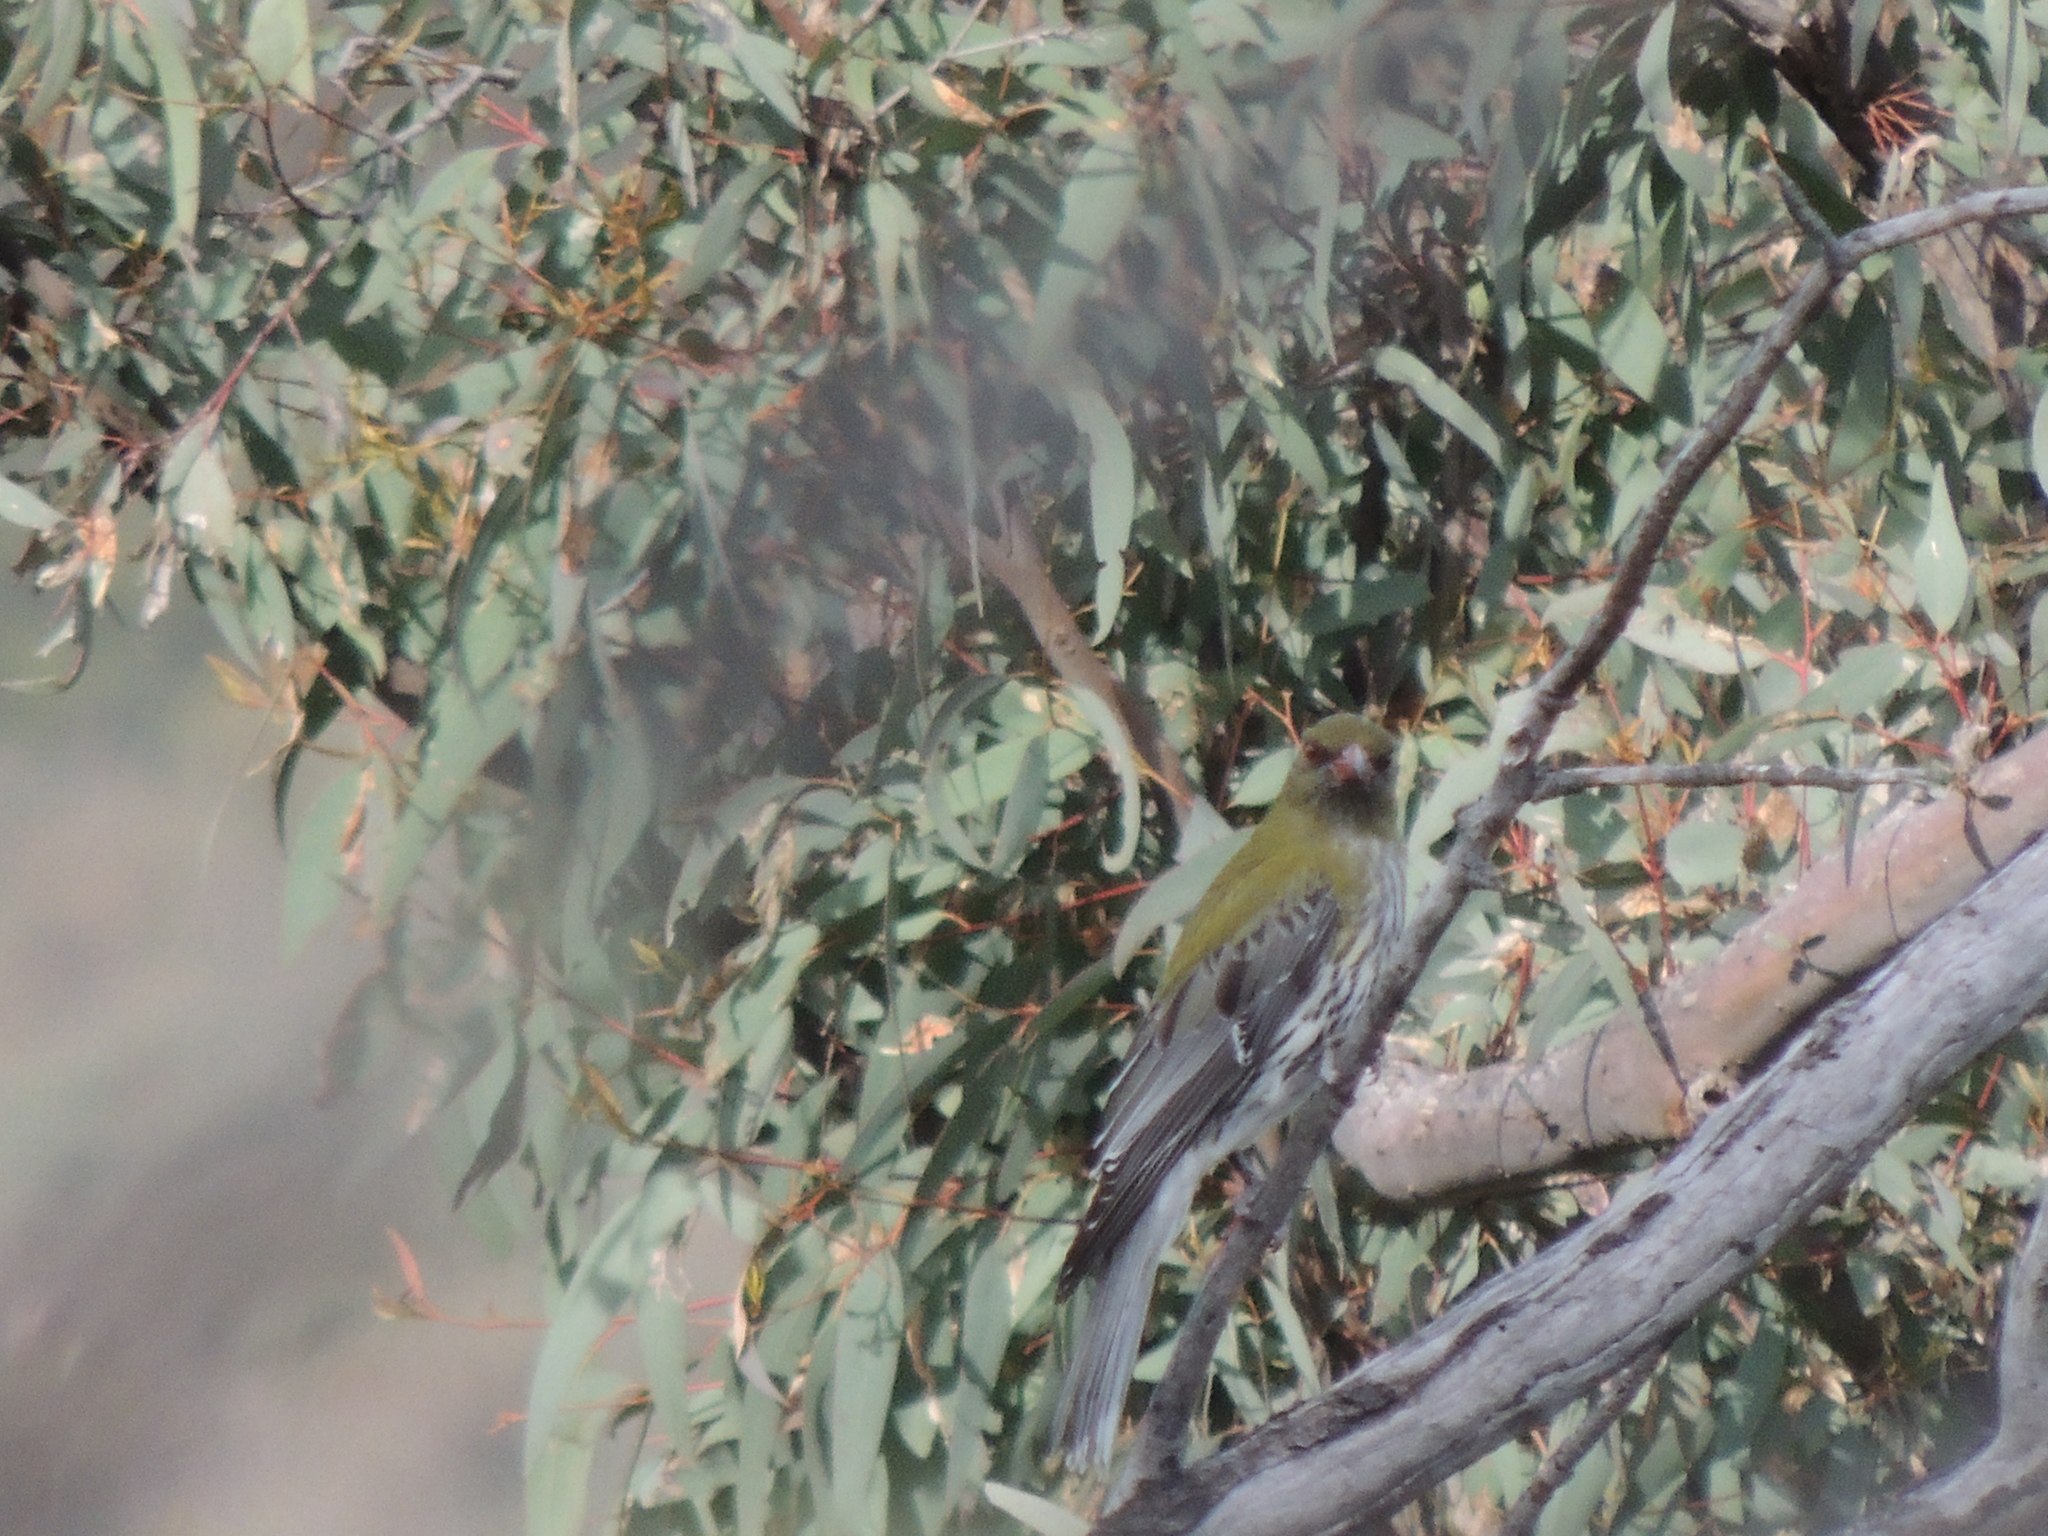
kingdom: Animalia
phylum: Chordata
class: Aves
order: Passeriformes
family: Oriolidae
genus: Oriolus
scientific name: Oriolus sagittatus
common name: Olive-backed oriole
